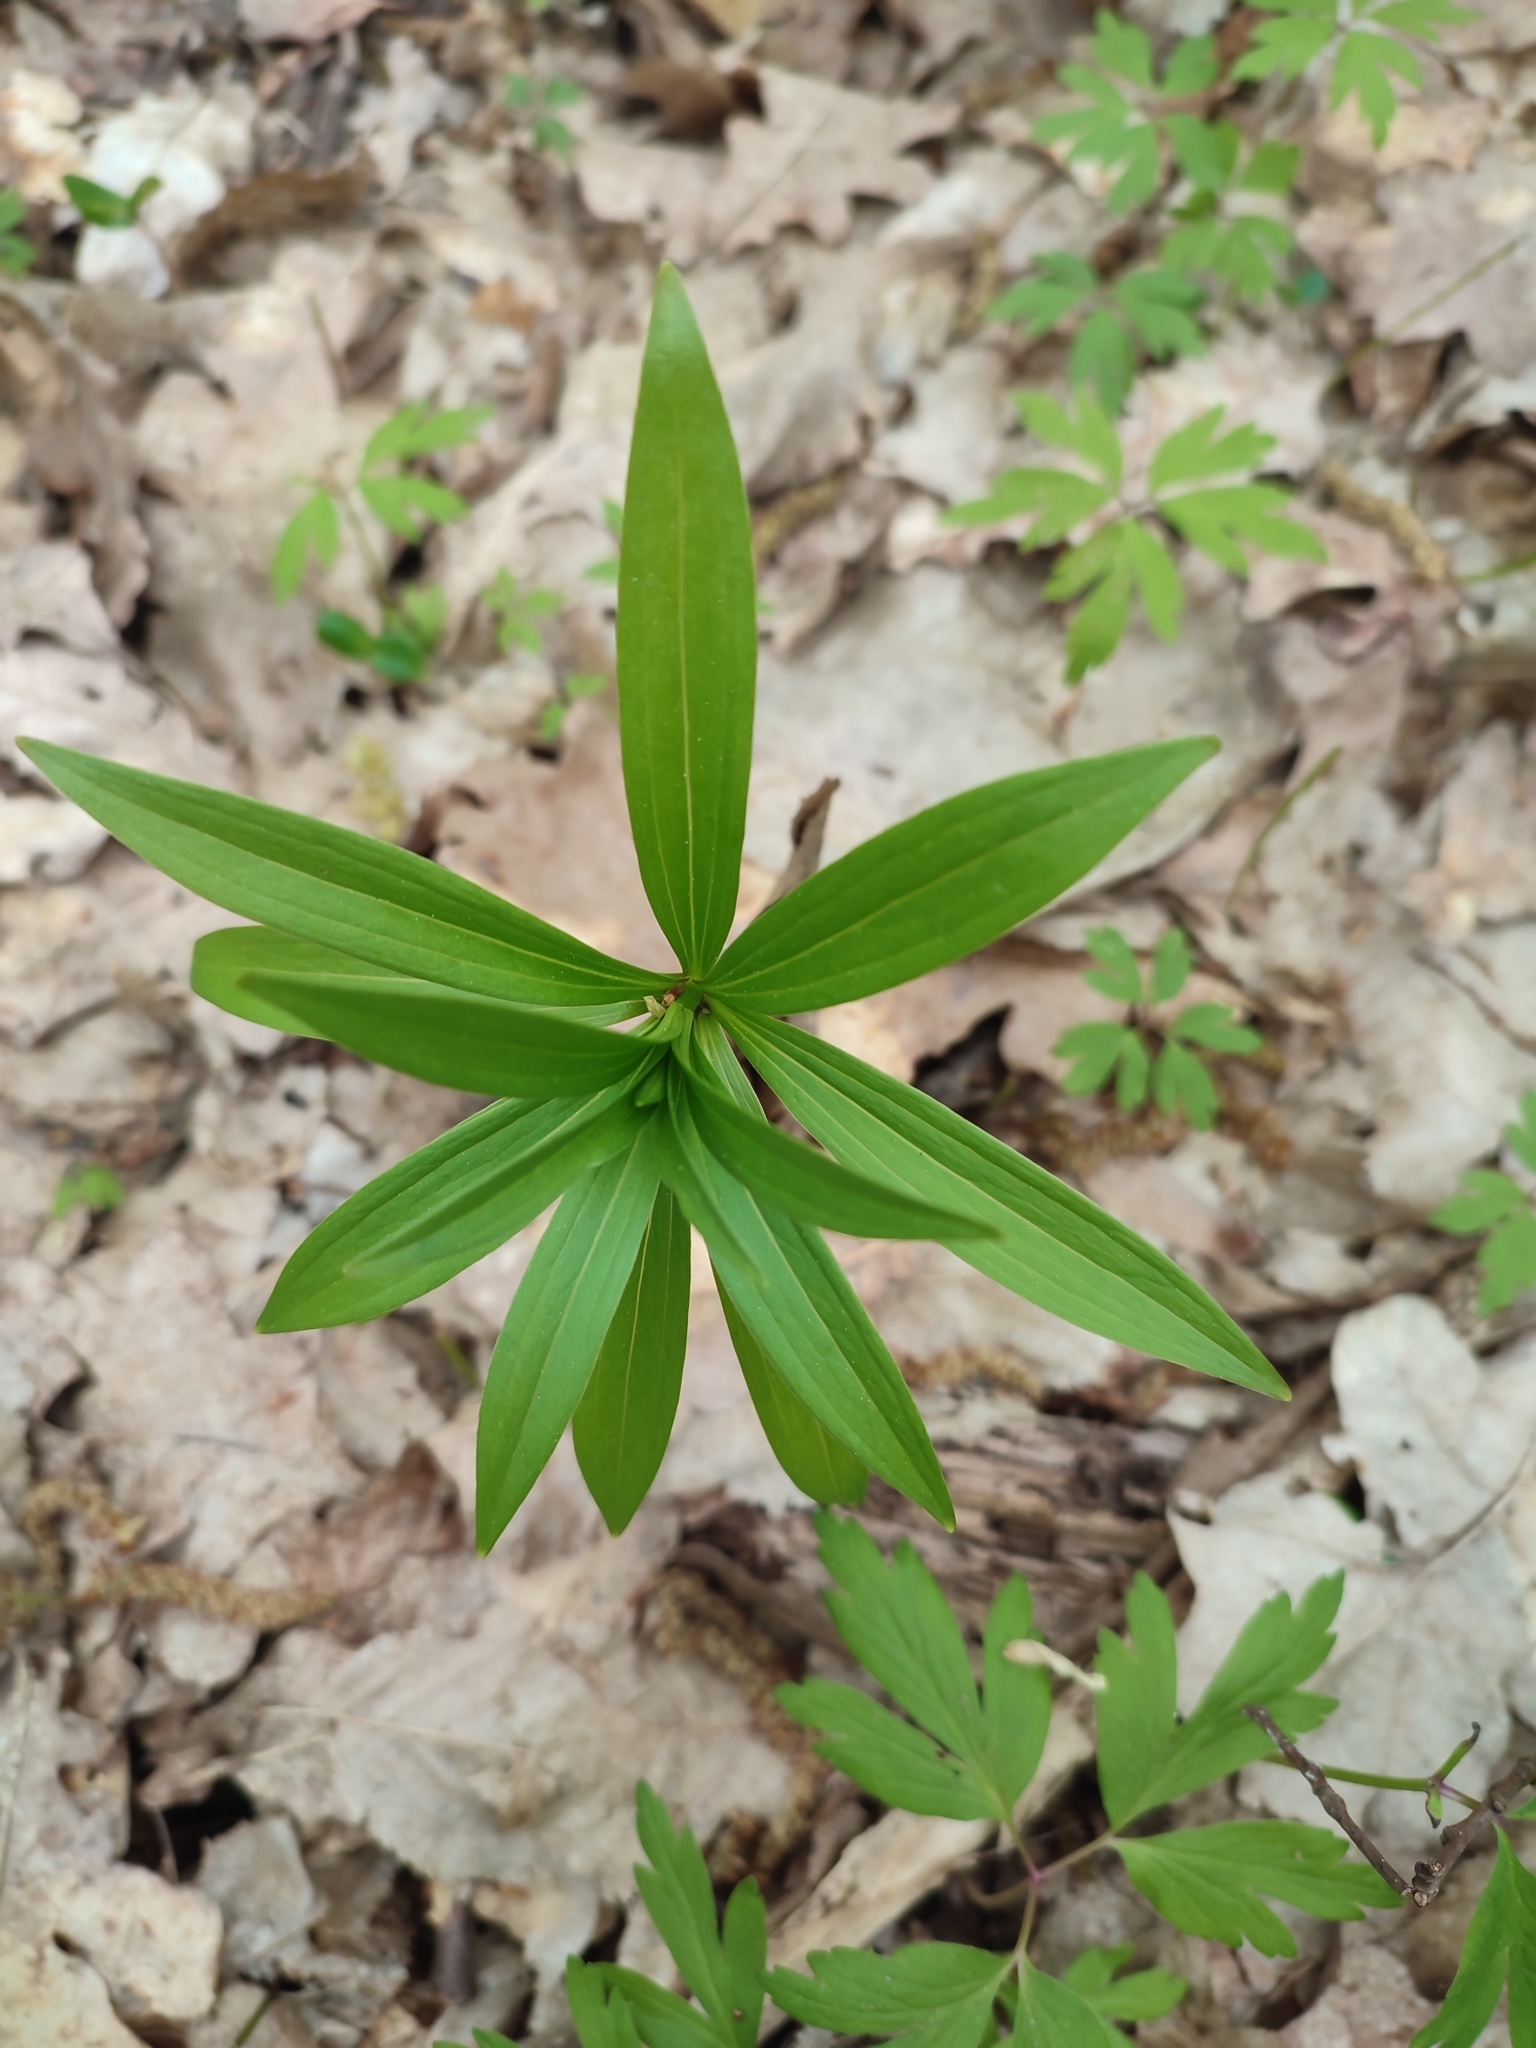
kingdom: Plantae
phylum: Tracheophyta
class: Liliopsida
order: Liliales
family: Liliaceae
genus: Lilium
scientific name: Lilium martagon
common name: Martagon lily
